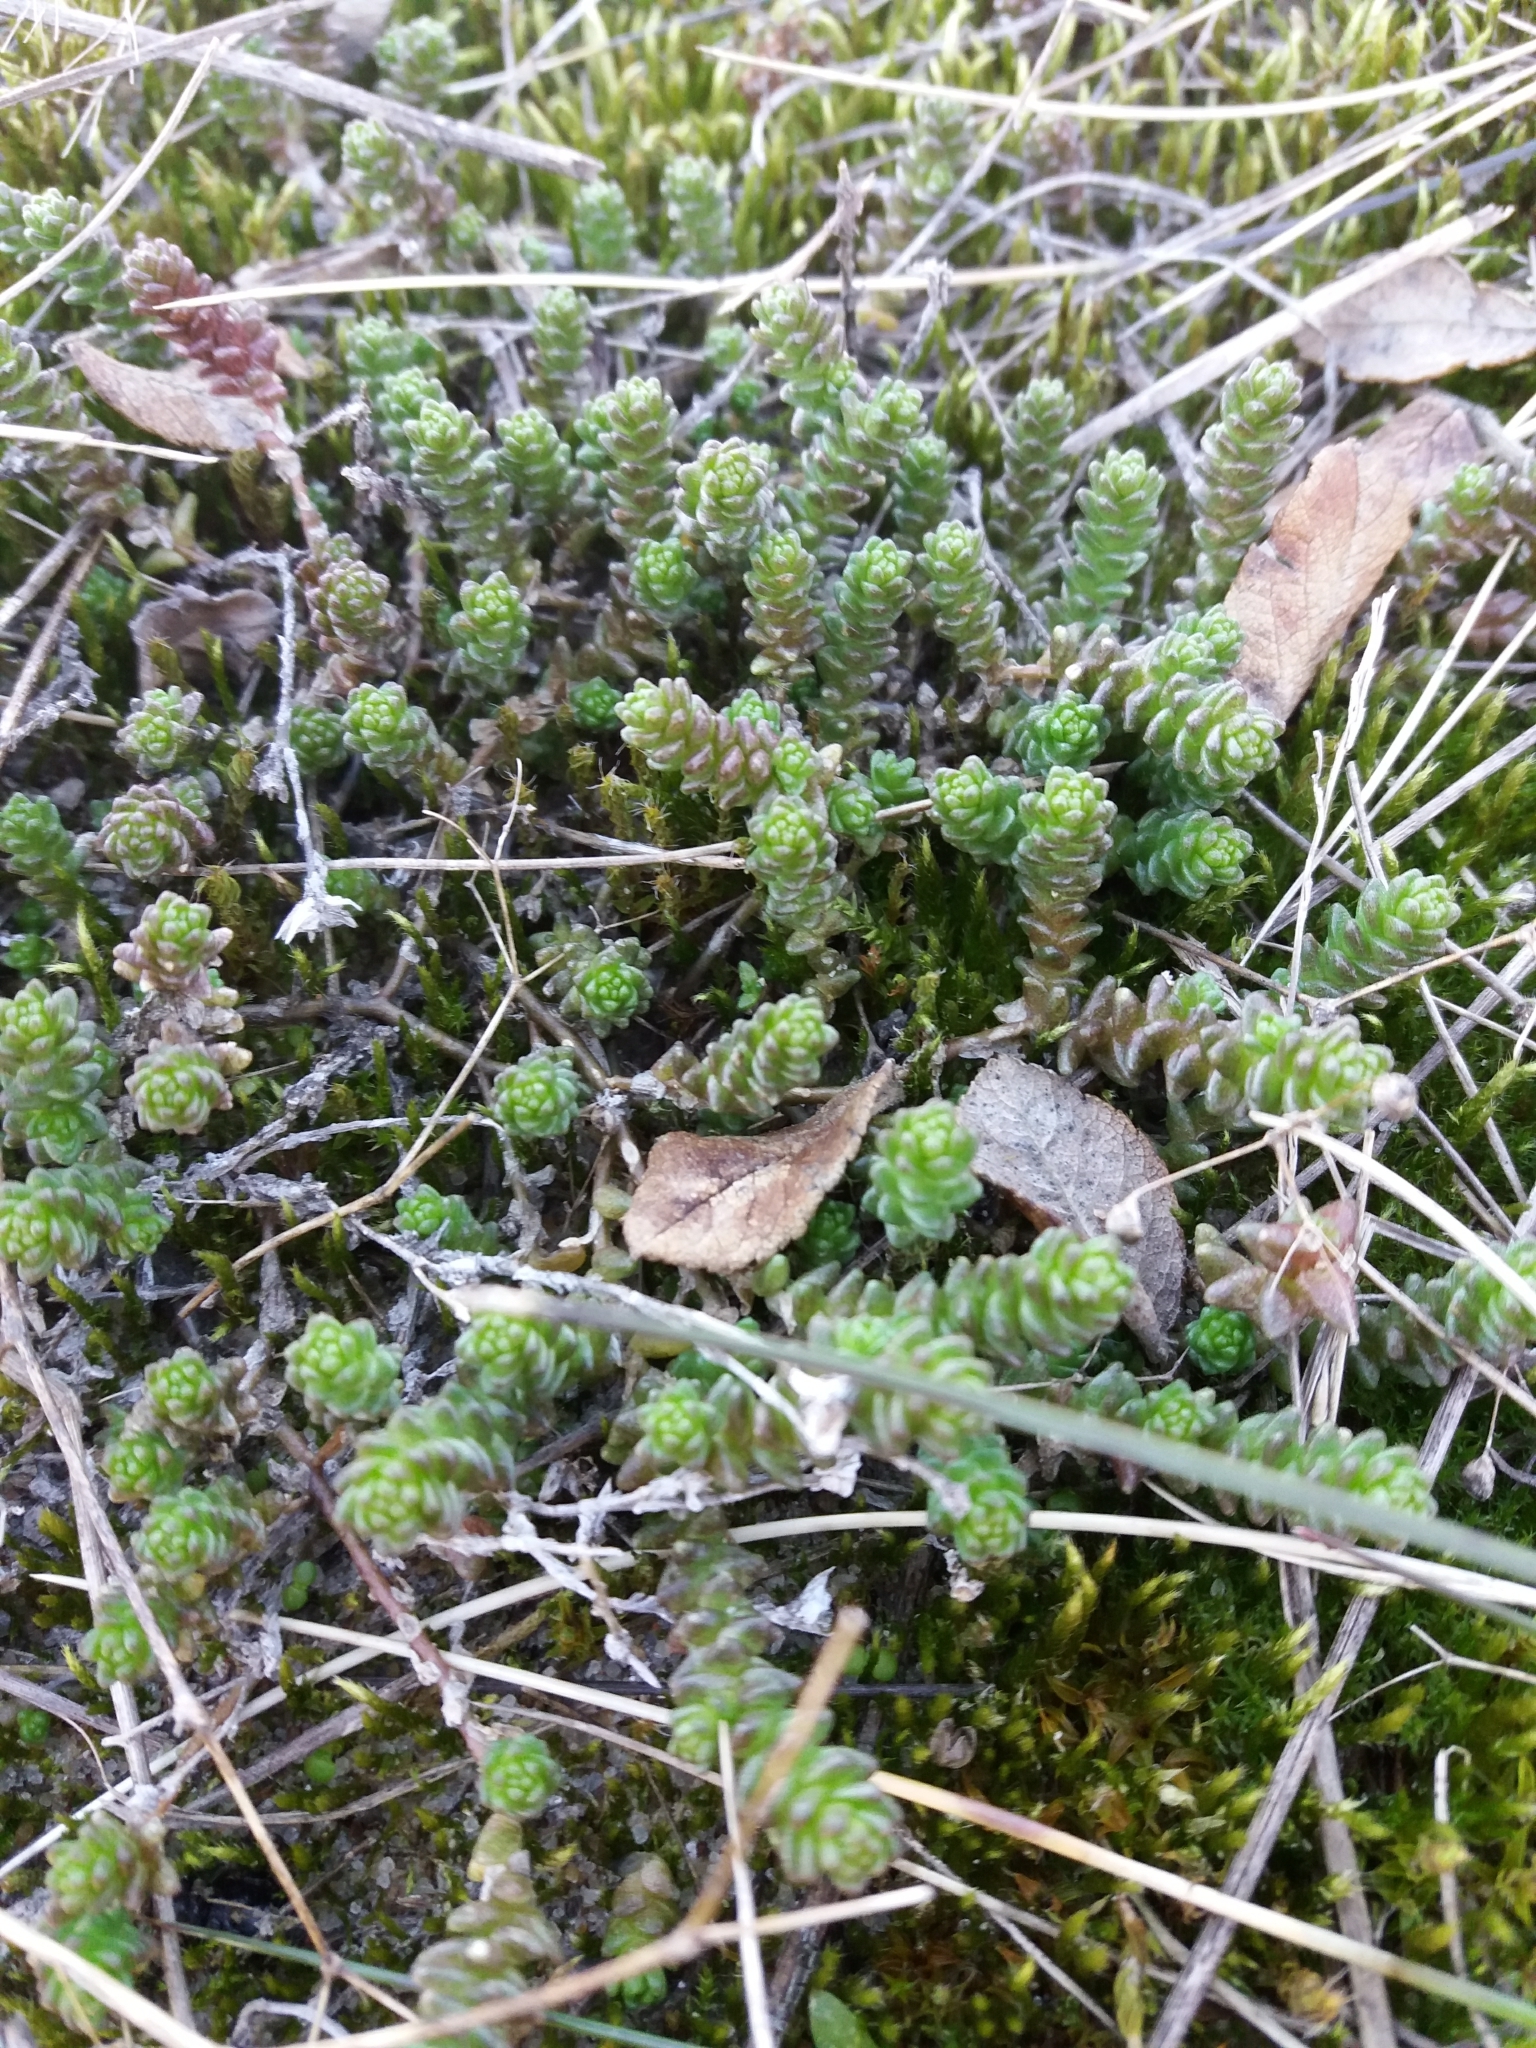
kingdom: Plantae
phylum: Tracheophyta
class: Magnoliopsida
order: Saxifragales
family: Crassulaceae
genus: Sedum
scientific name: Sedum acre
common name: Biting stonecrop
